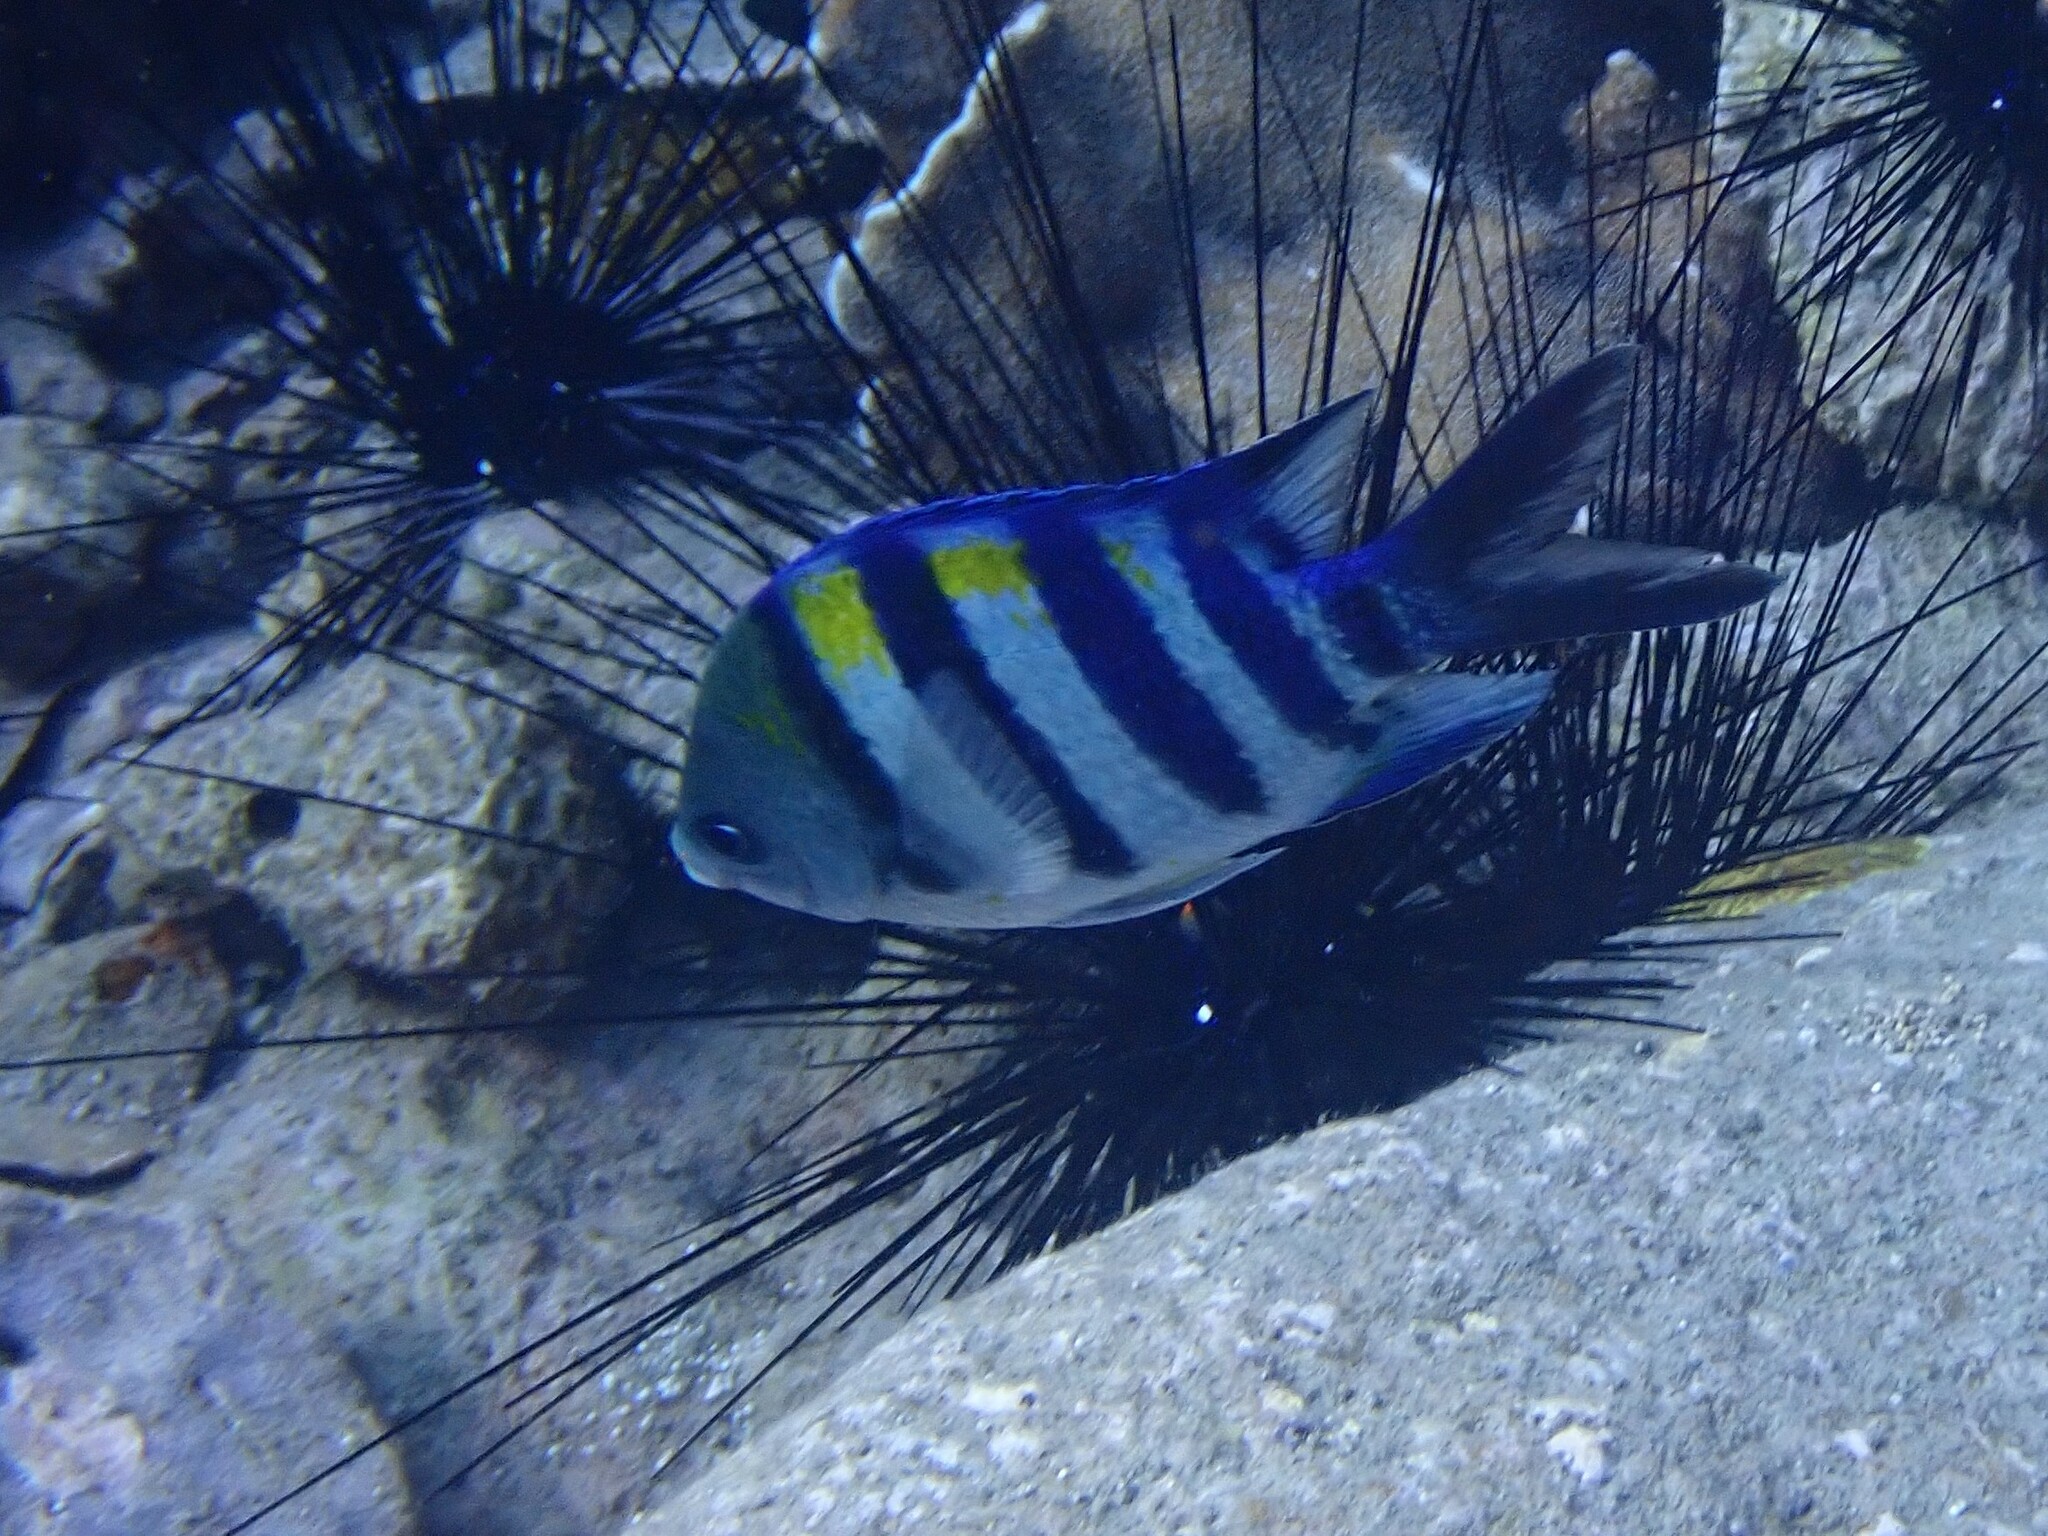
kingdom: Animalia
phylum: Chordata
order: Perciformes
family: Pomacentridae
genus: Abudefduf
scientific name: Abudefduf vaigiensis
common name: Indo-pacific sergeant
